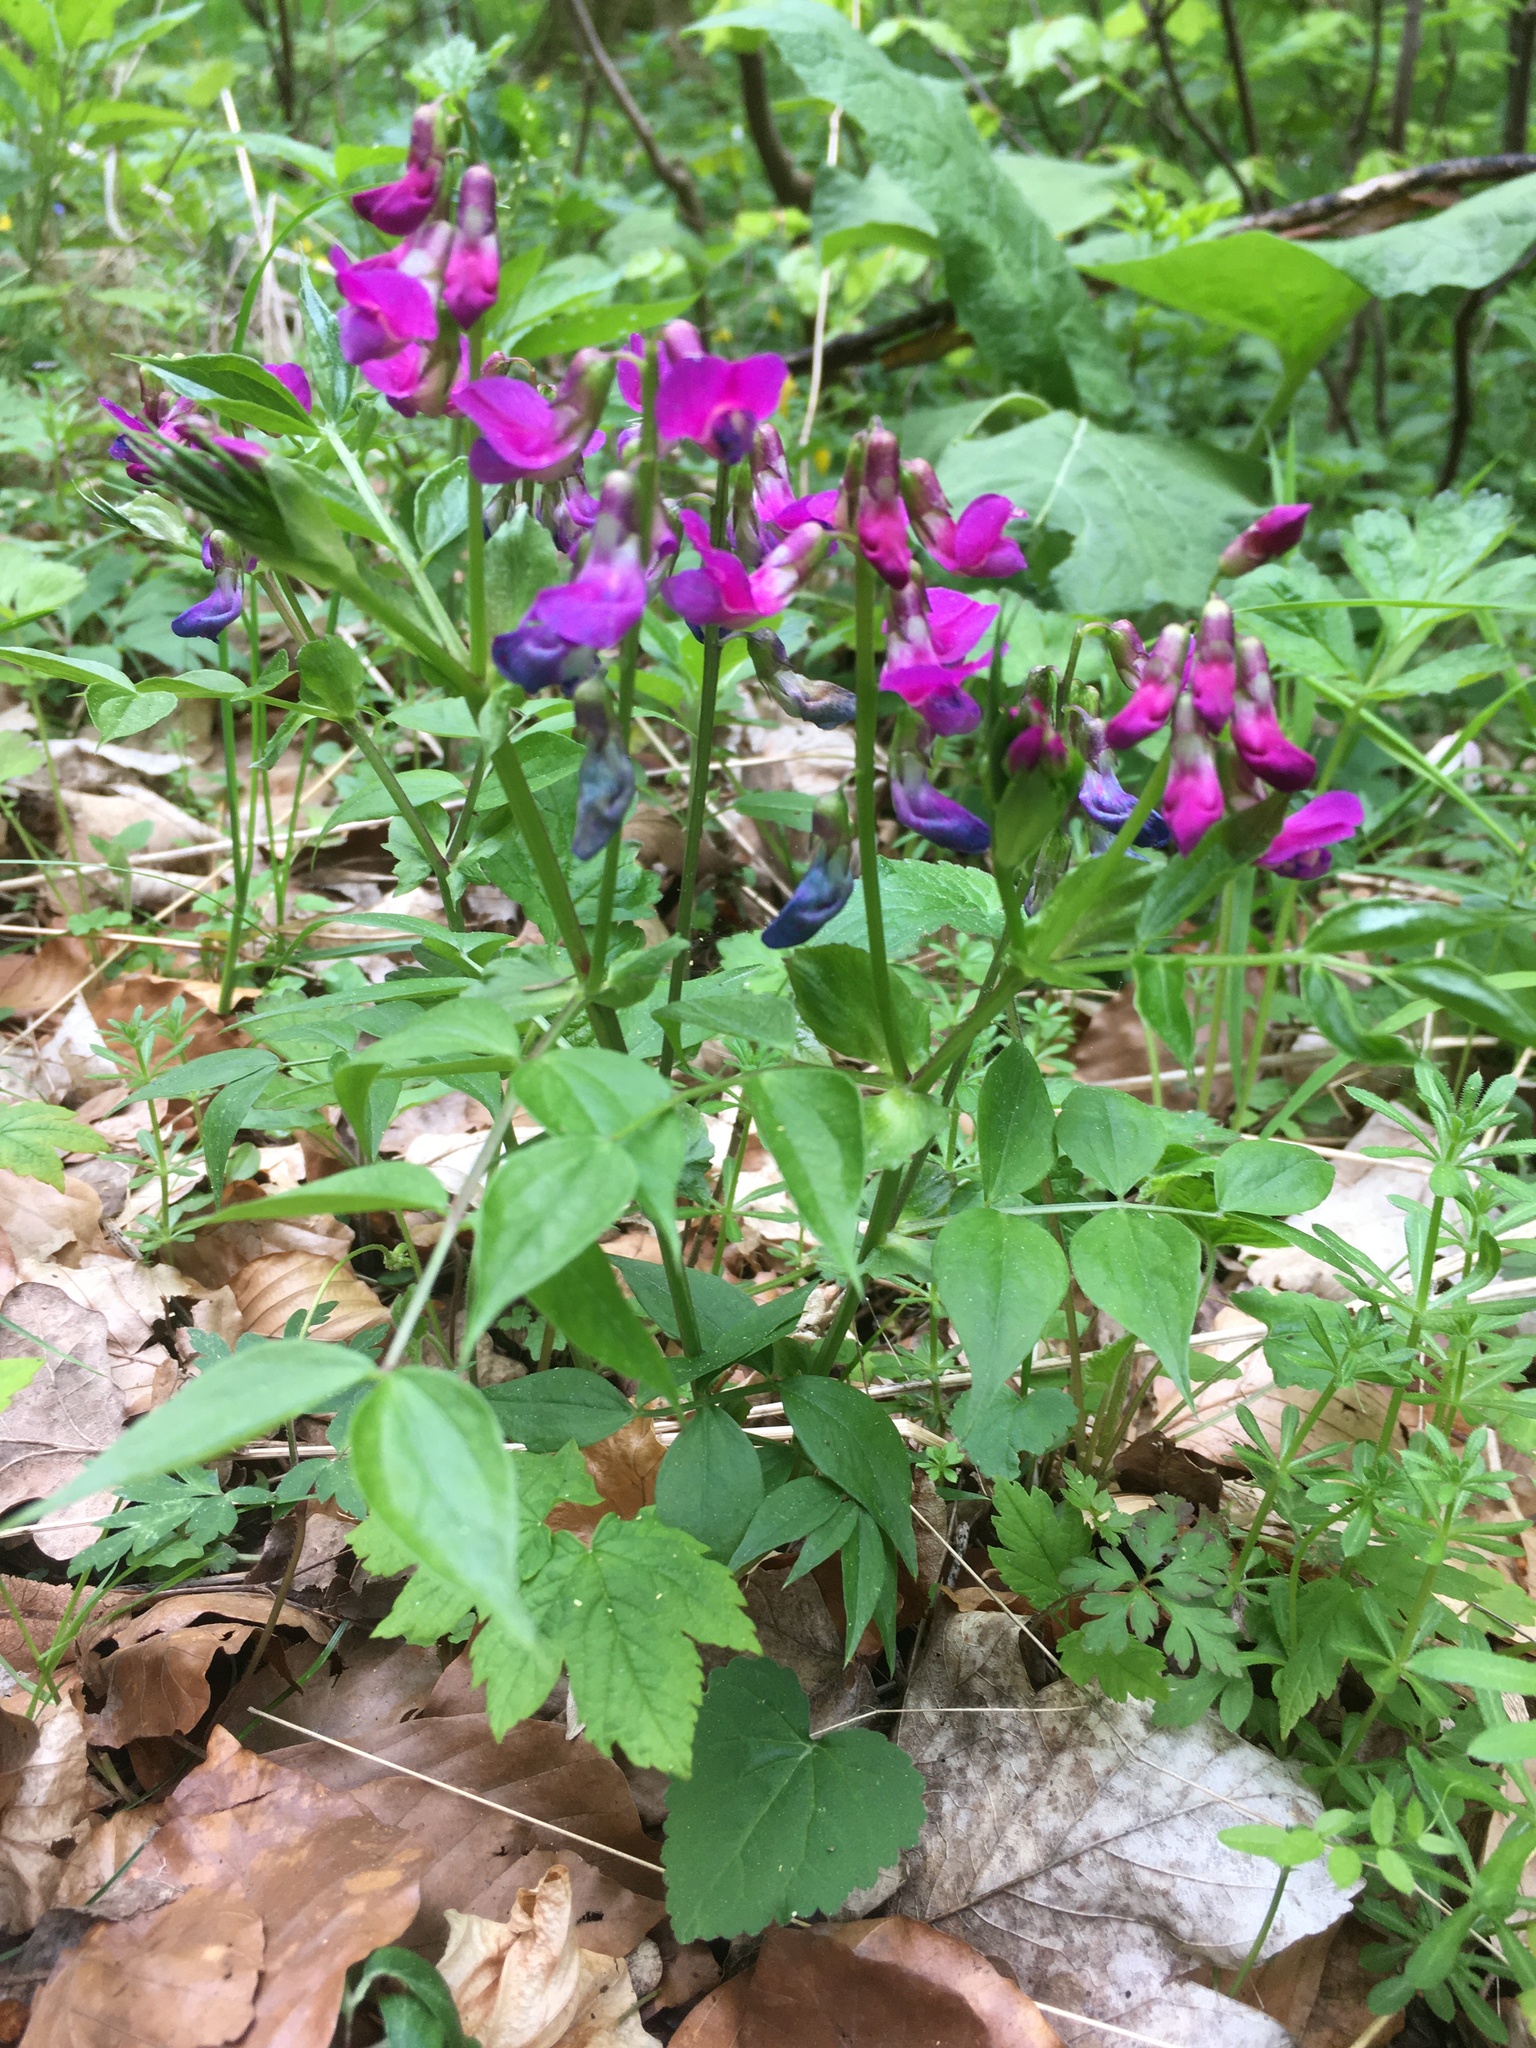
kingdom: Plantae
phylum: Tracheophyta
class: Magnoliopsida
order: Fabales
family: Fabaceae
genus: Lathyrus
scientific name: Lathyrus vernus
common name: Spring pea
